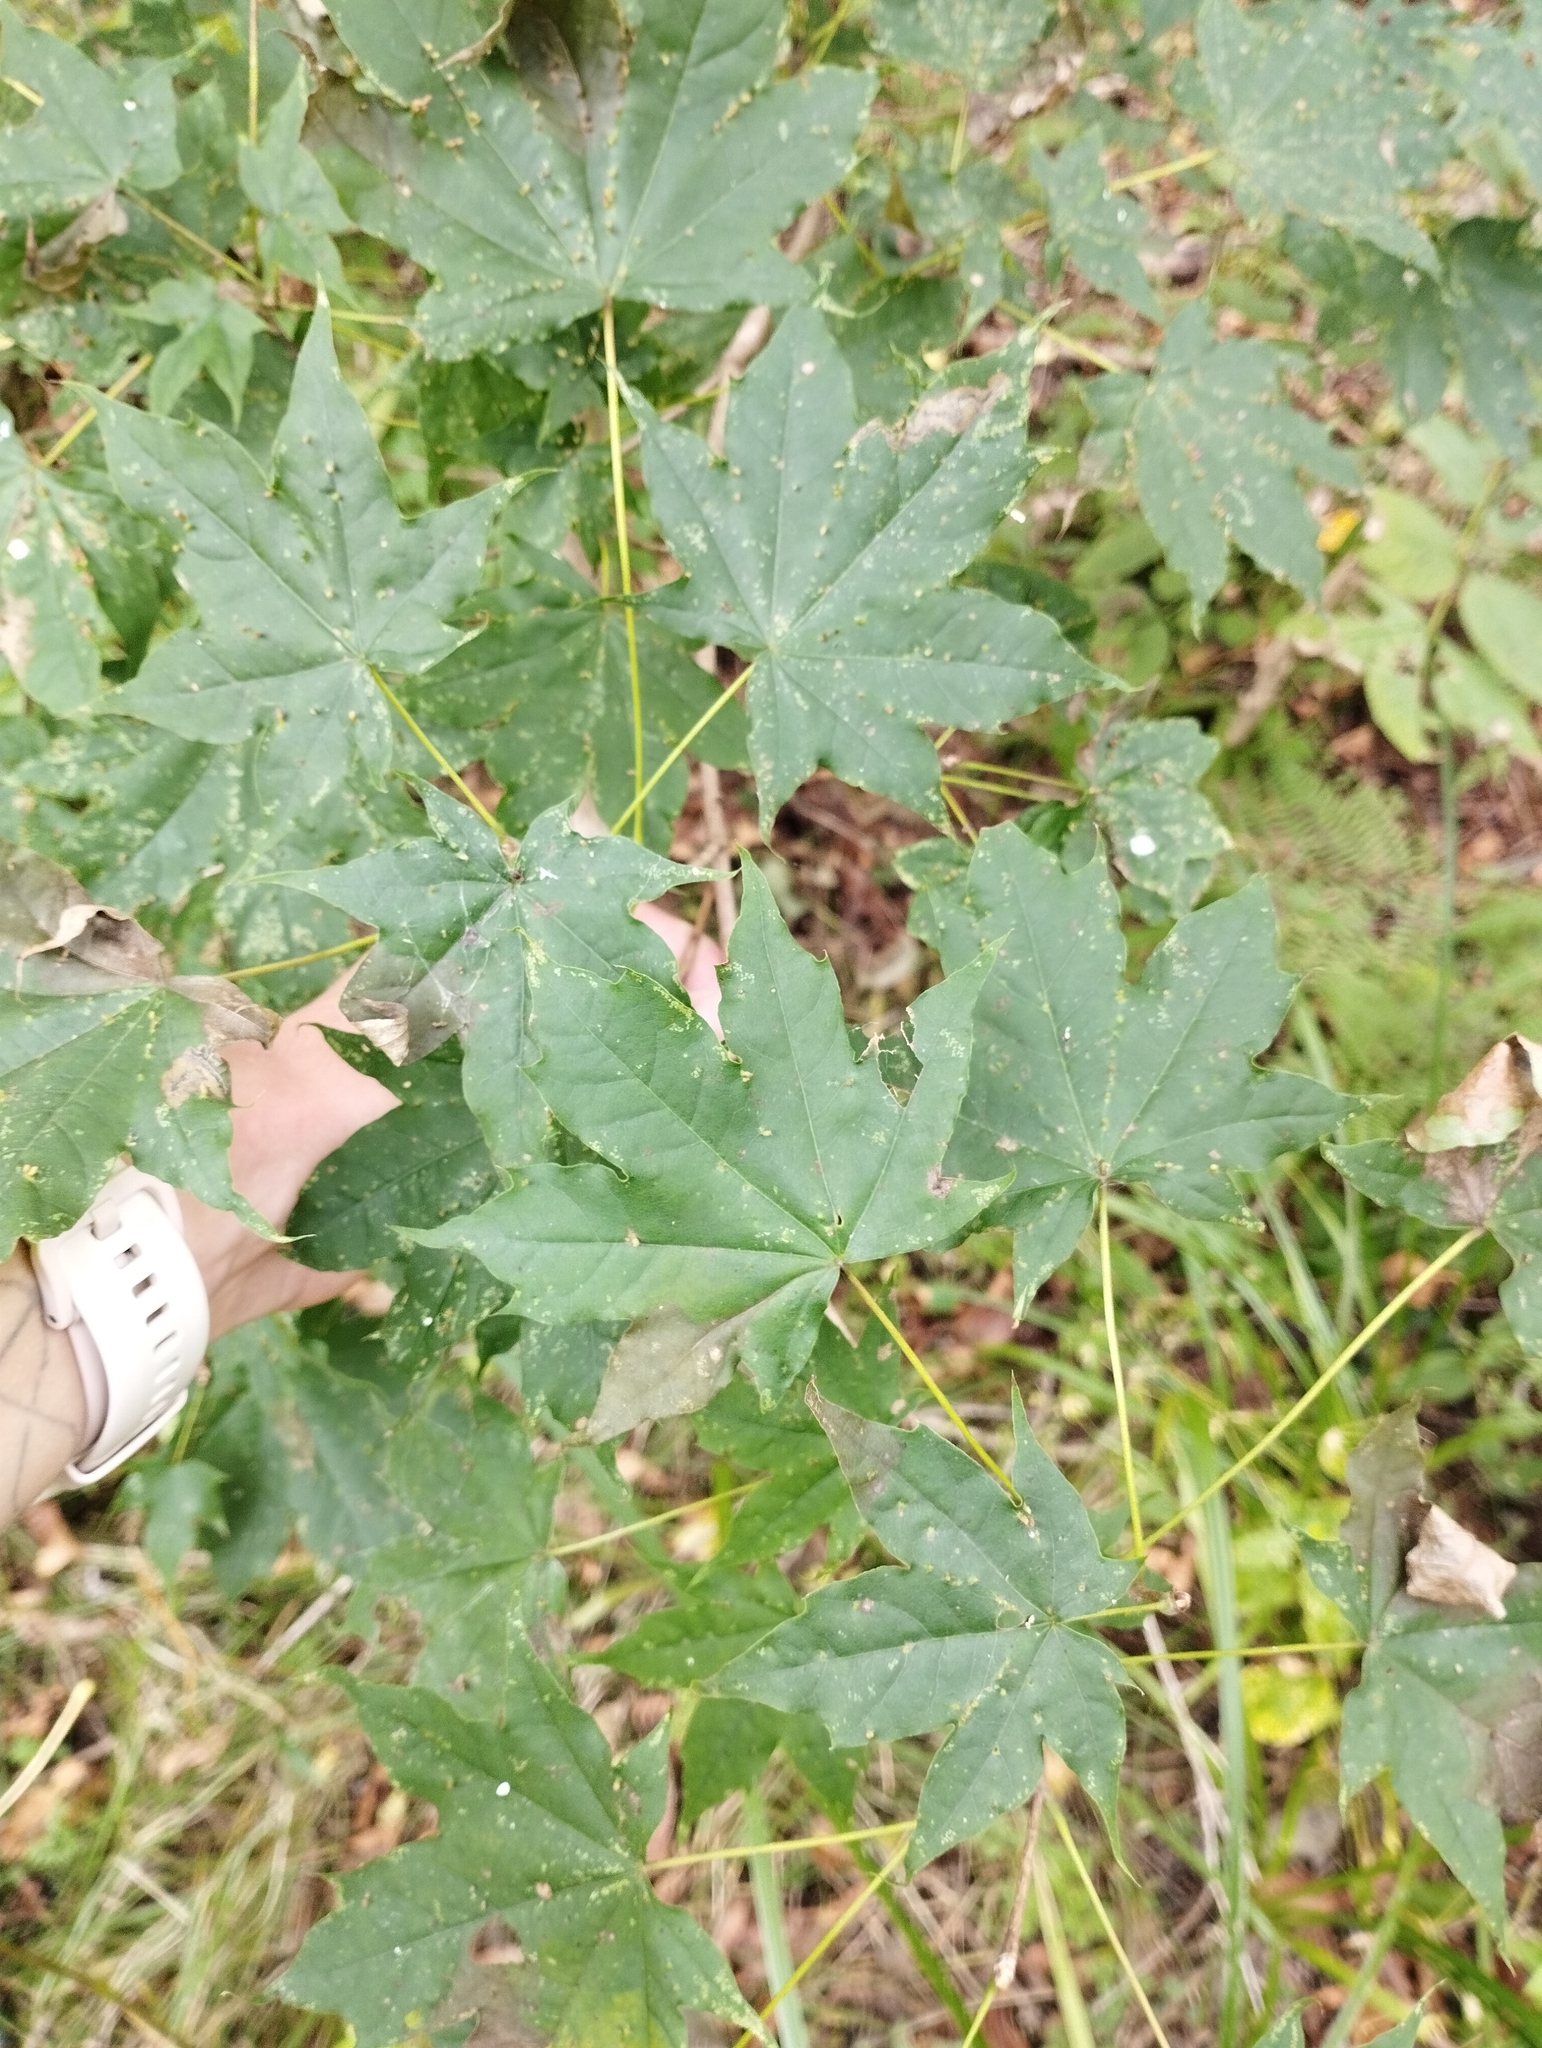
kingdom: Plantae
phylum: Tracheophyta
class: Magnoliopsida
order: Sapindales
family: Sapindaceae
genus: Acer
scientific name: Acer pictum
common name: The painted maple
